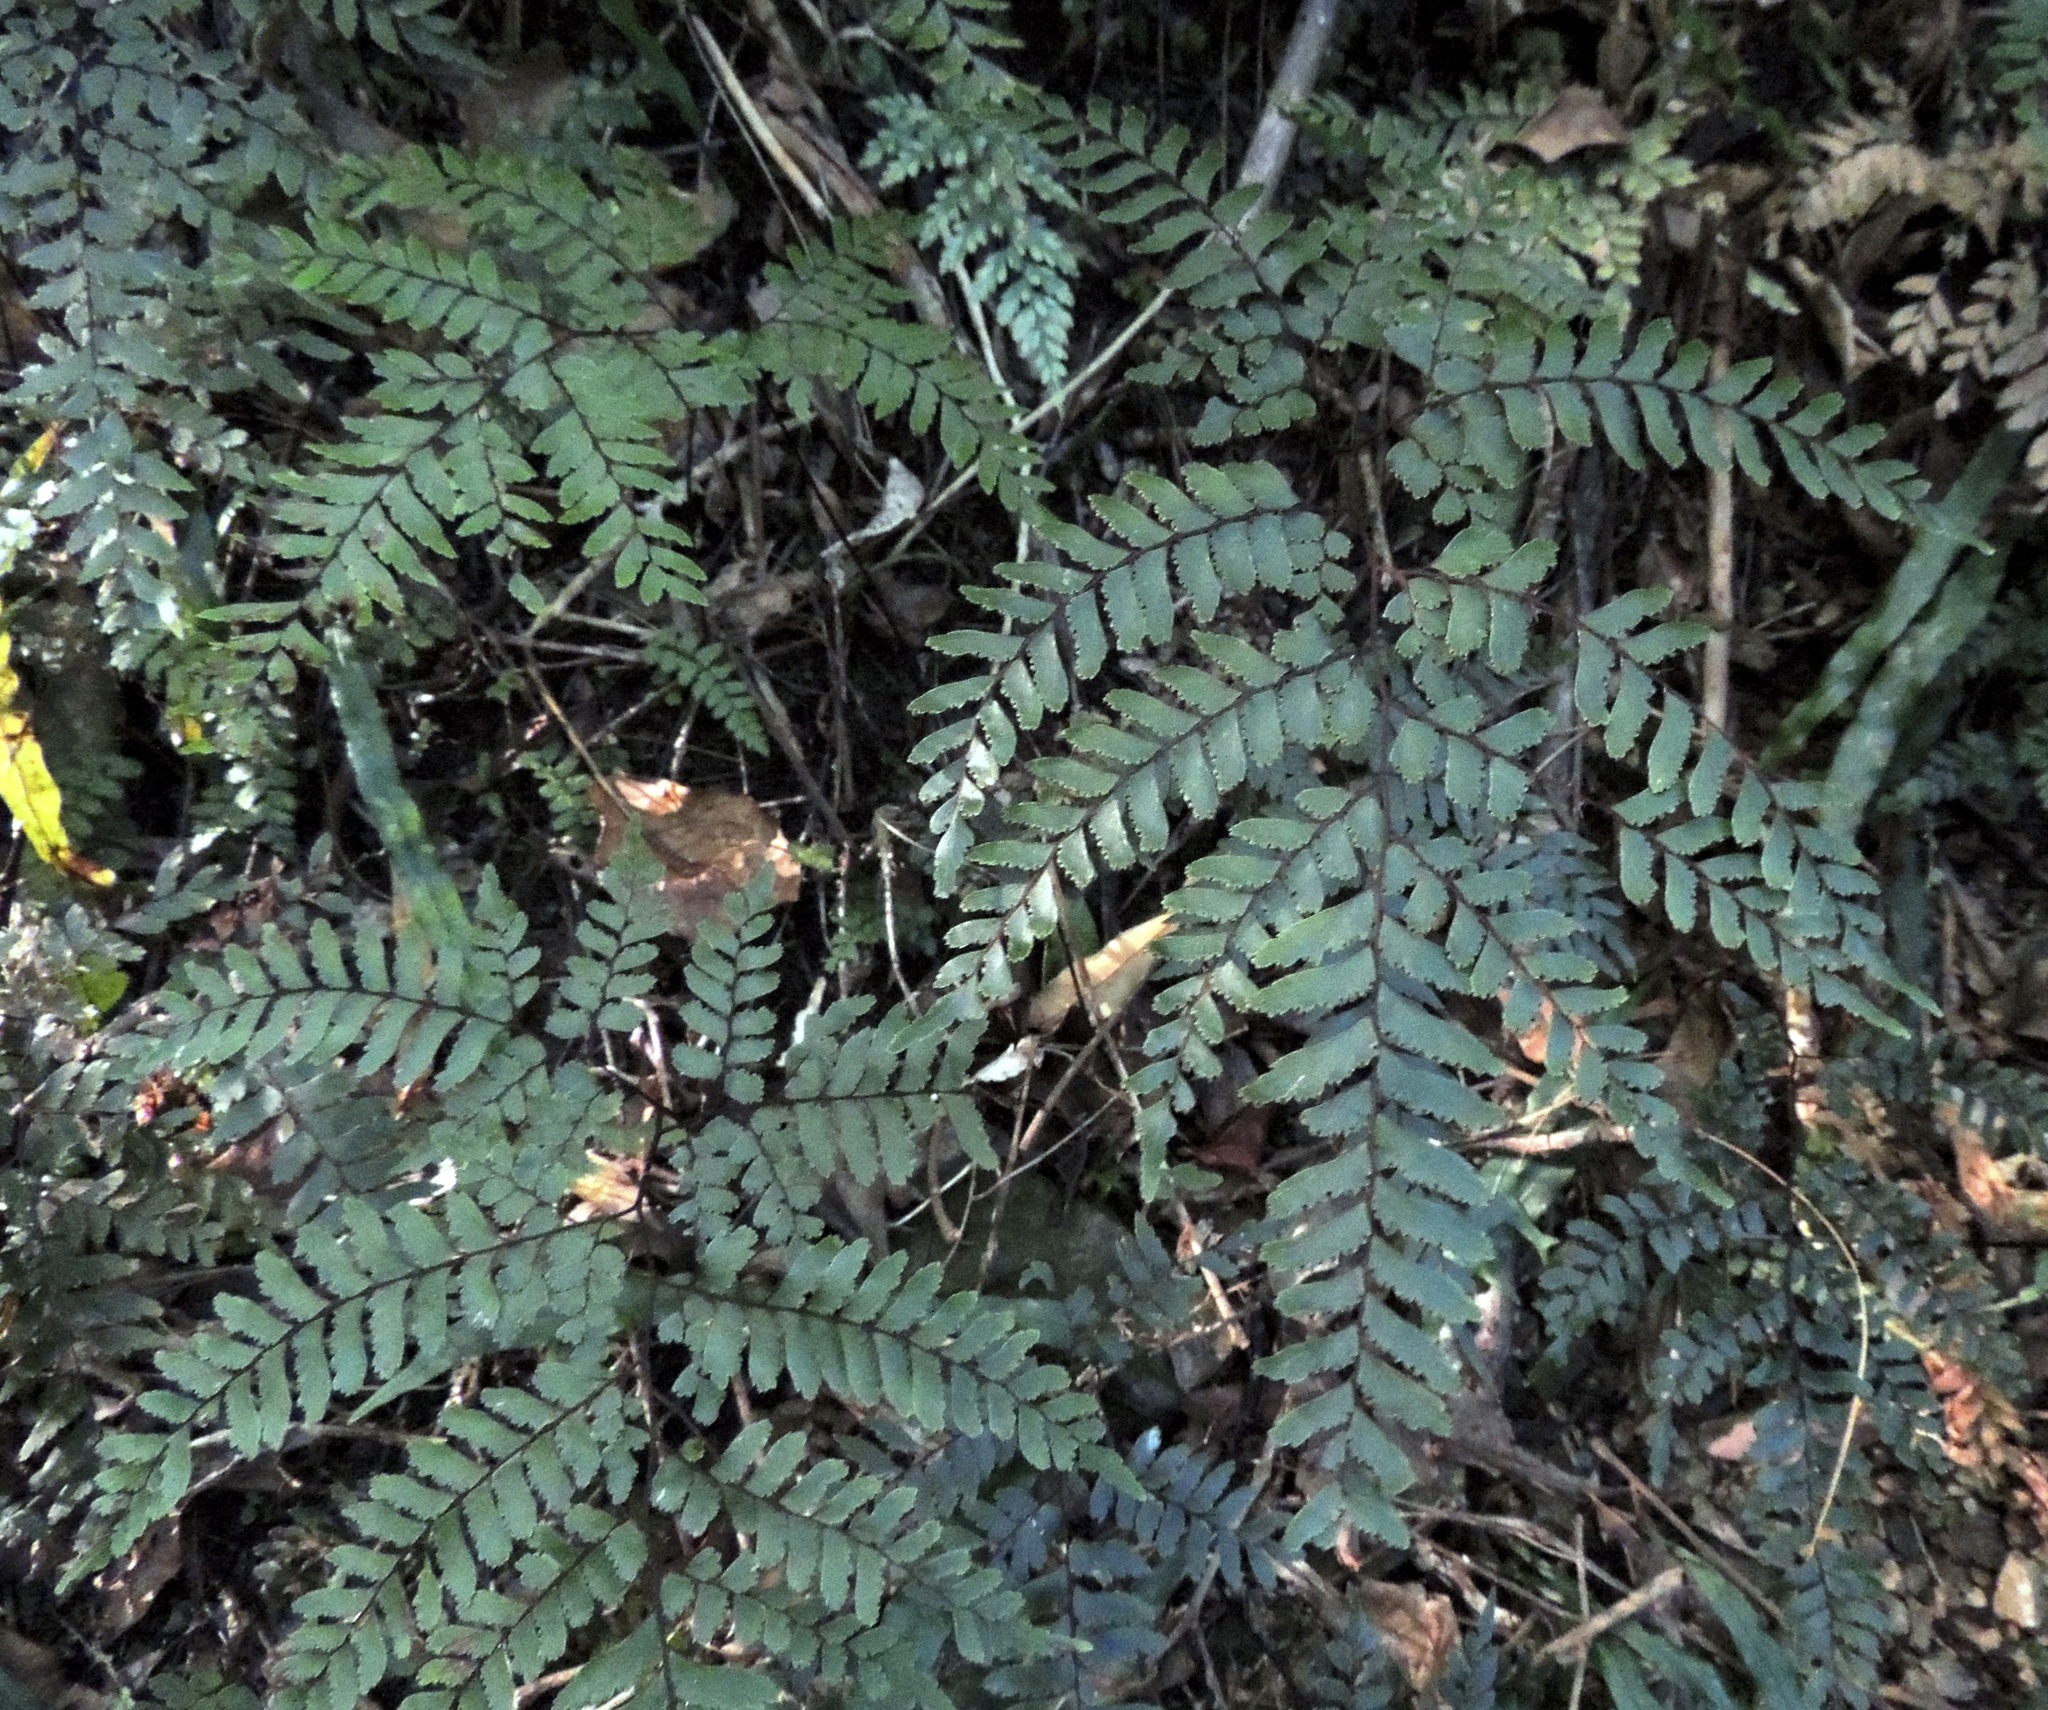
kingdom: Plantae
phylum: Tracheophyta
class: Polypodiopsida
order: Polypodiales
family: Pteridaceae
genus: Adiantum
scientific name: Adiantum fulvum
